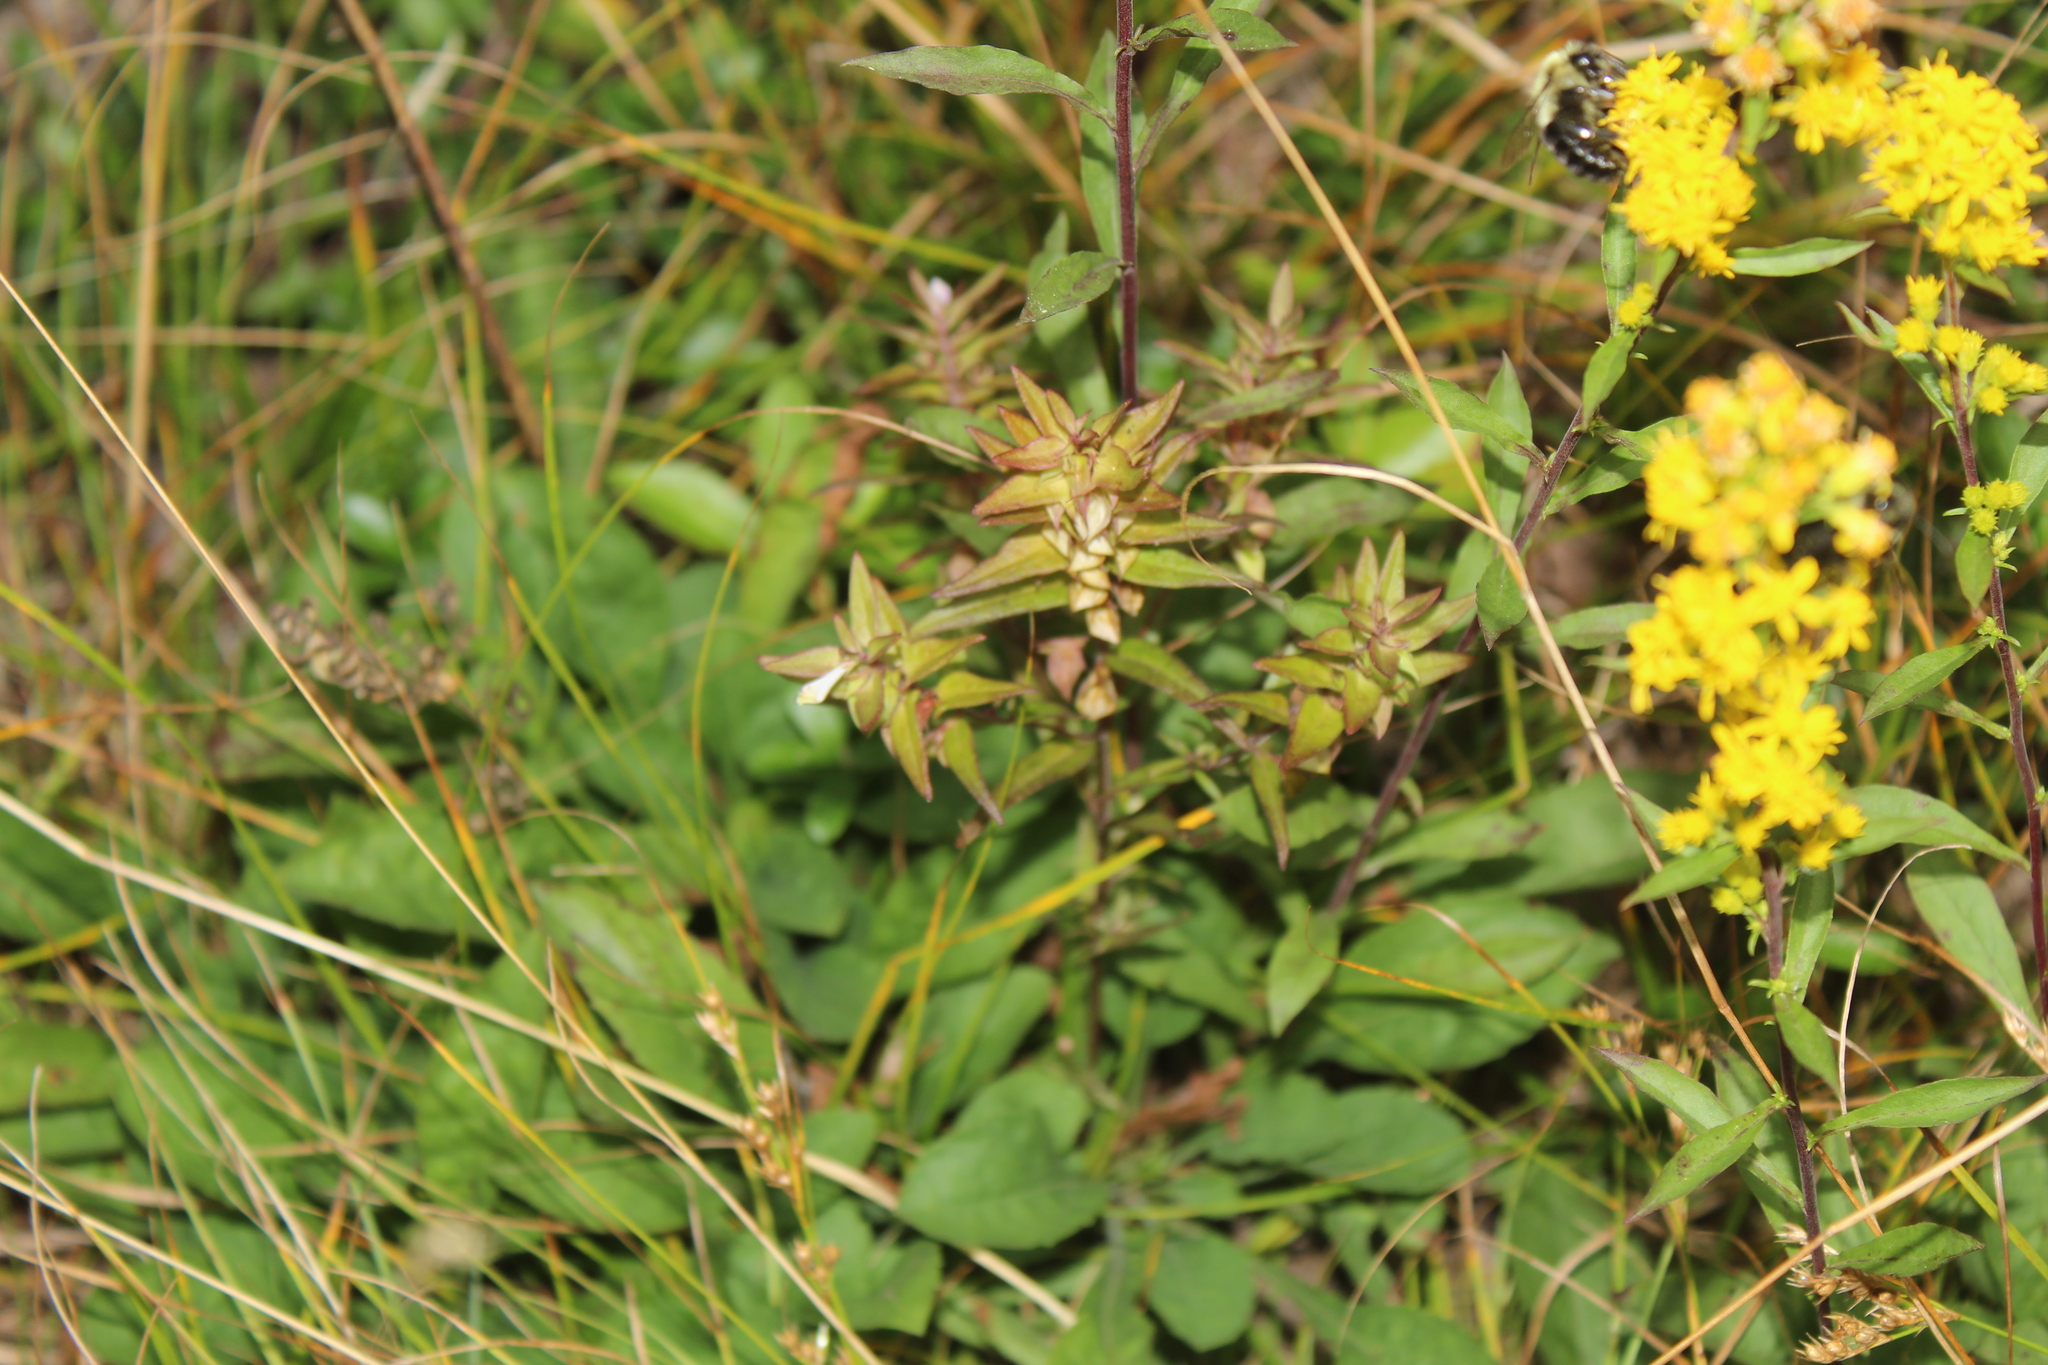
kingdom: Plantae
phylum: Tracheophyta
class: Magnoliopsida
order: Lamiales
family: Orobanchaceae
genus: Melampyrum
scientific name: Melampyrum lineare
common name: American cow-wheat
